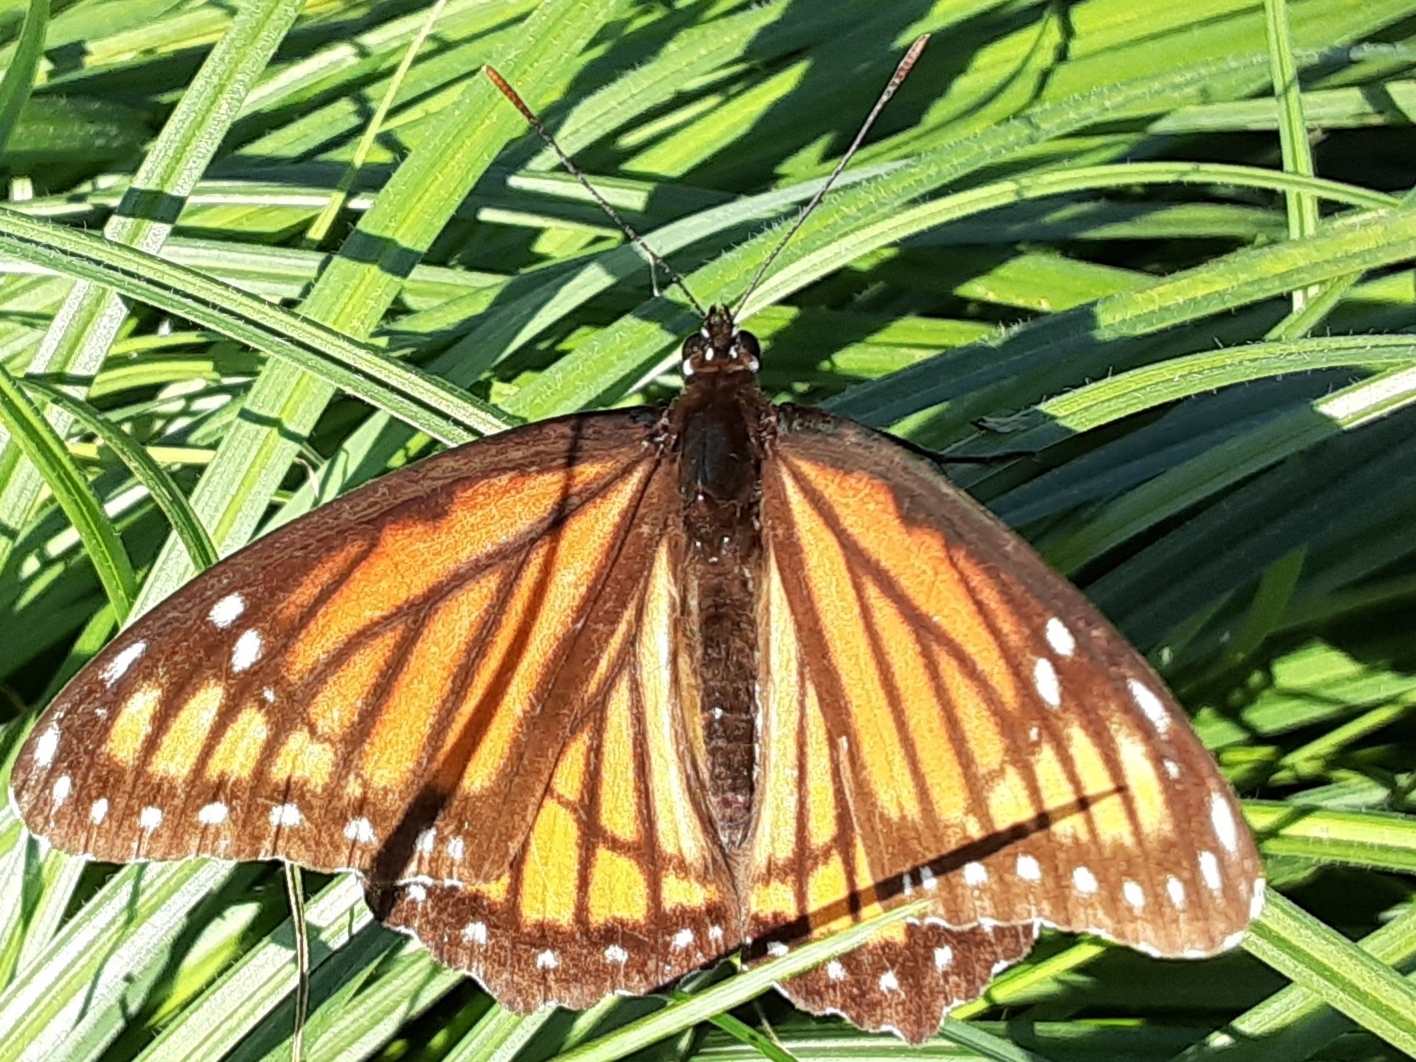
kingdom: Animalia
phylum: Arthropoda
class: Insecta
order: Lepidoptera
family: Nymphalidae
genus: Limenitis
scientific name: Limenitis archippus
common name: Viceroy
